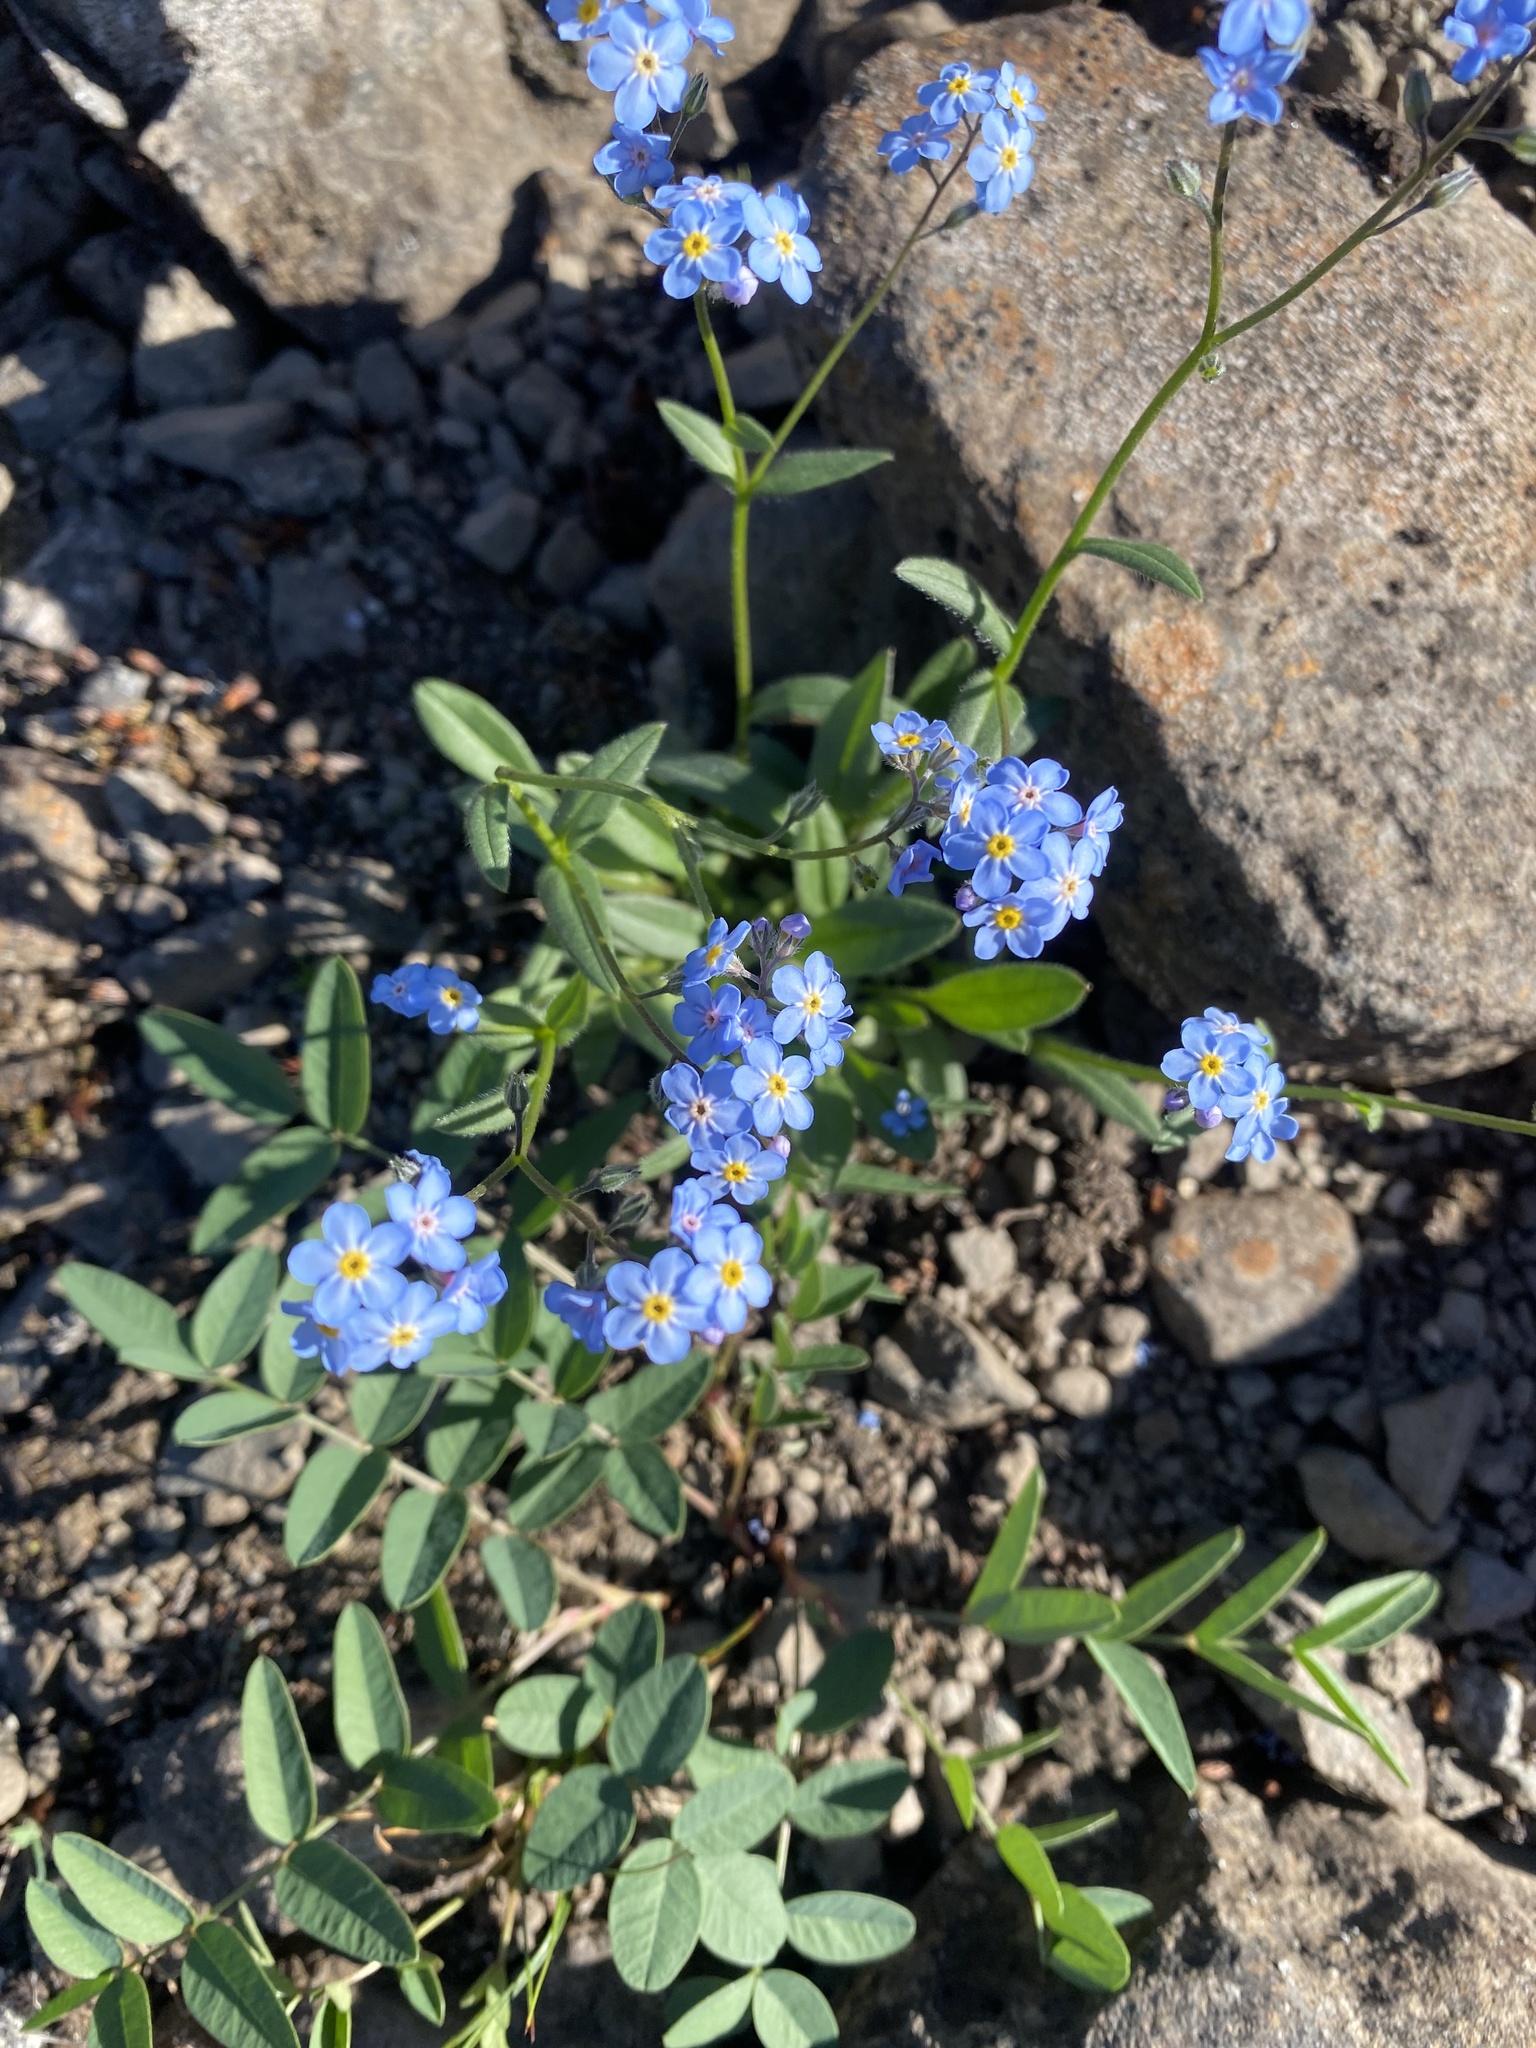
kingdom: Plantae
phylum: Tracheophyta
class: Magnoliopsida
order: Boraginales
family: Boraginaceae
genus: Myosotis
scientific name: Myosotis asiatica
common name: Asian forget-me-not
